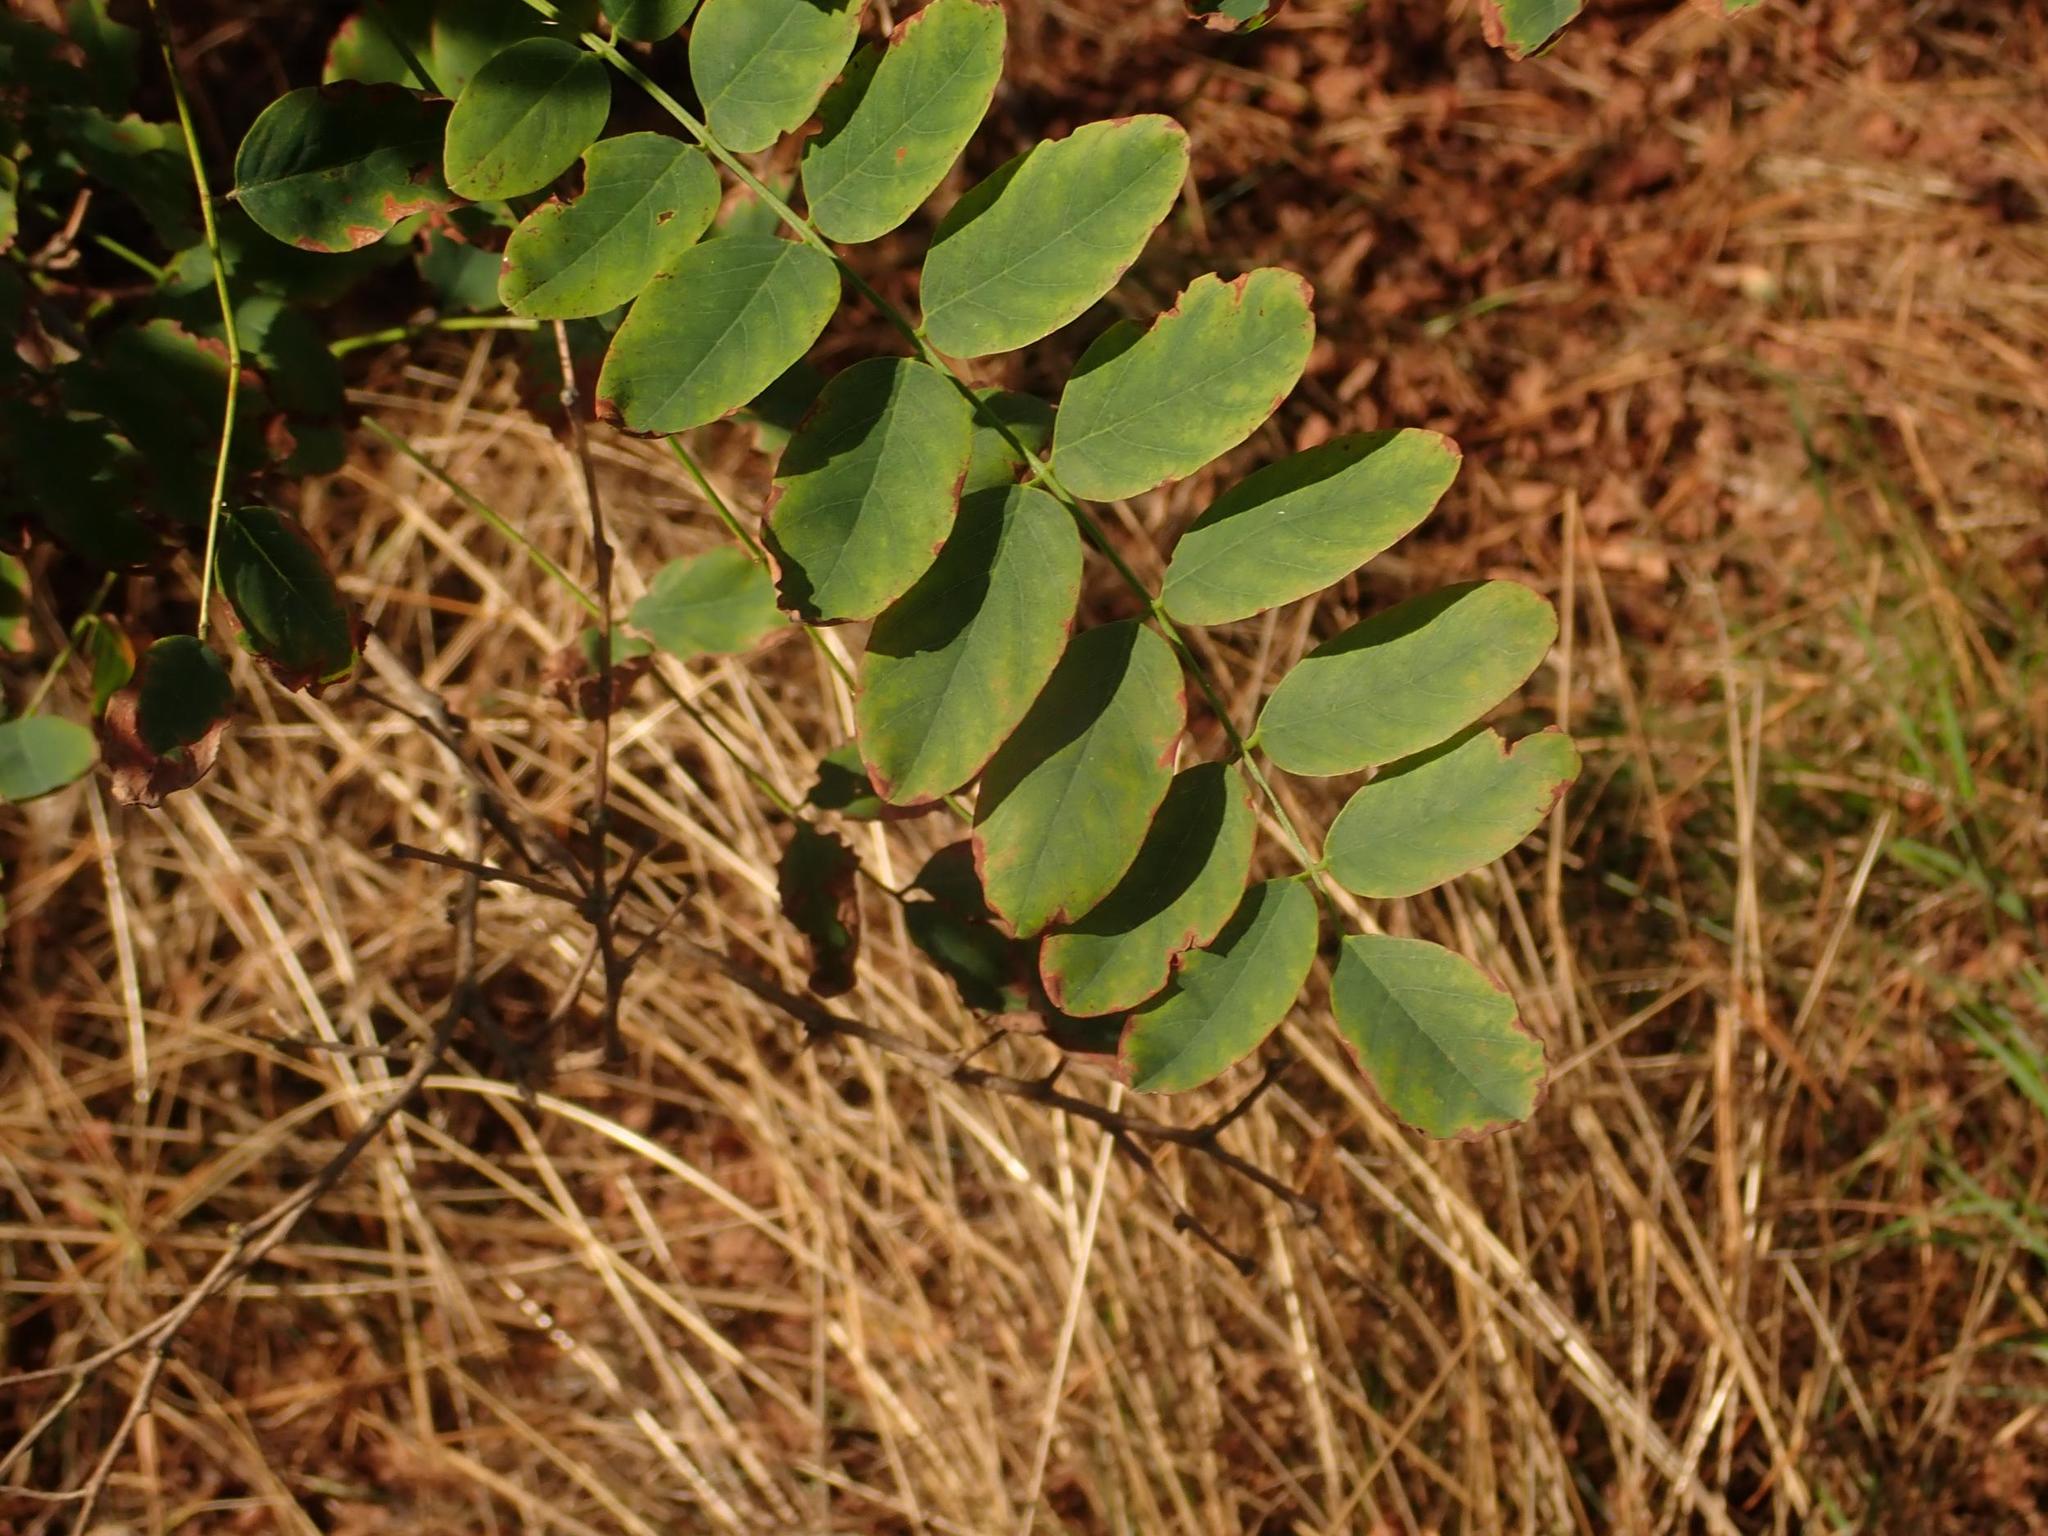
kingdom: Plantae
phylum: Tracheophyta
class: Magnoliopsida
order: Fabales
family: Fabaceae
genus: Robinia
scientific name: Robinia pseudoacacia
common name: Black locust
